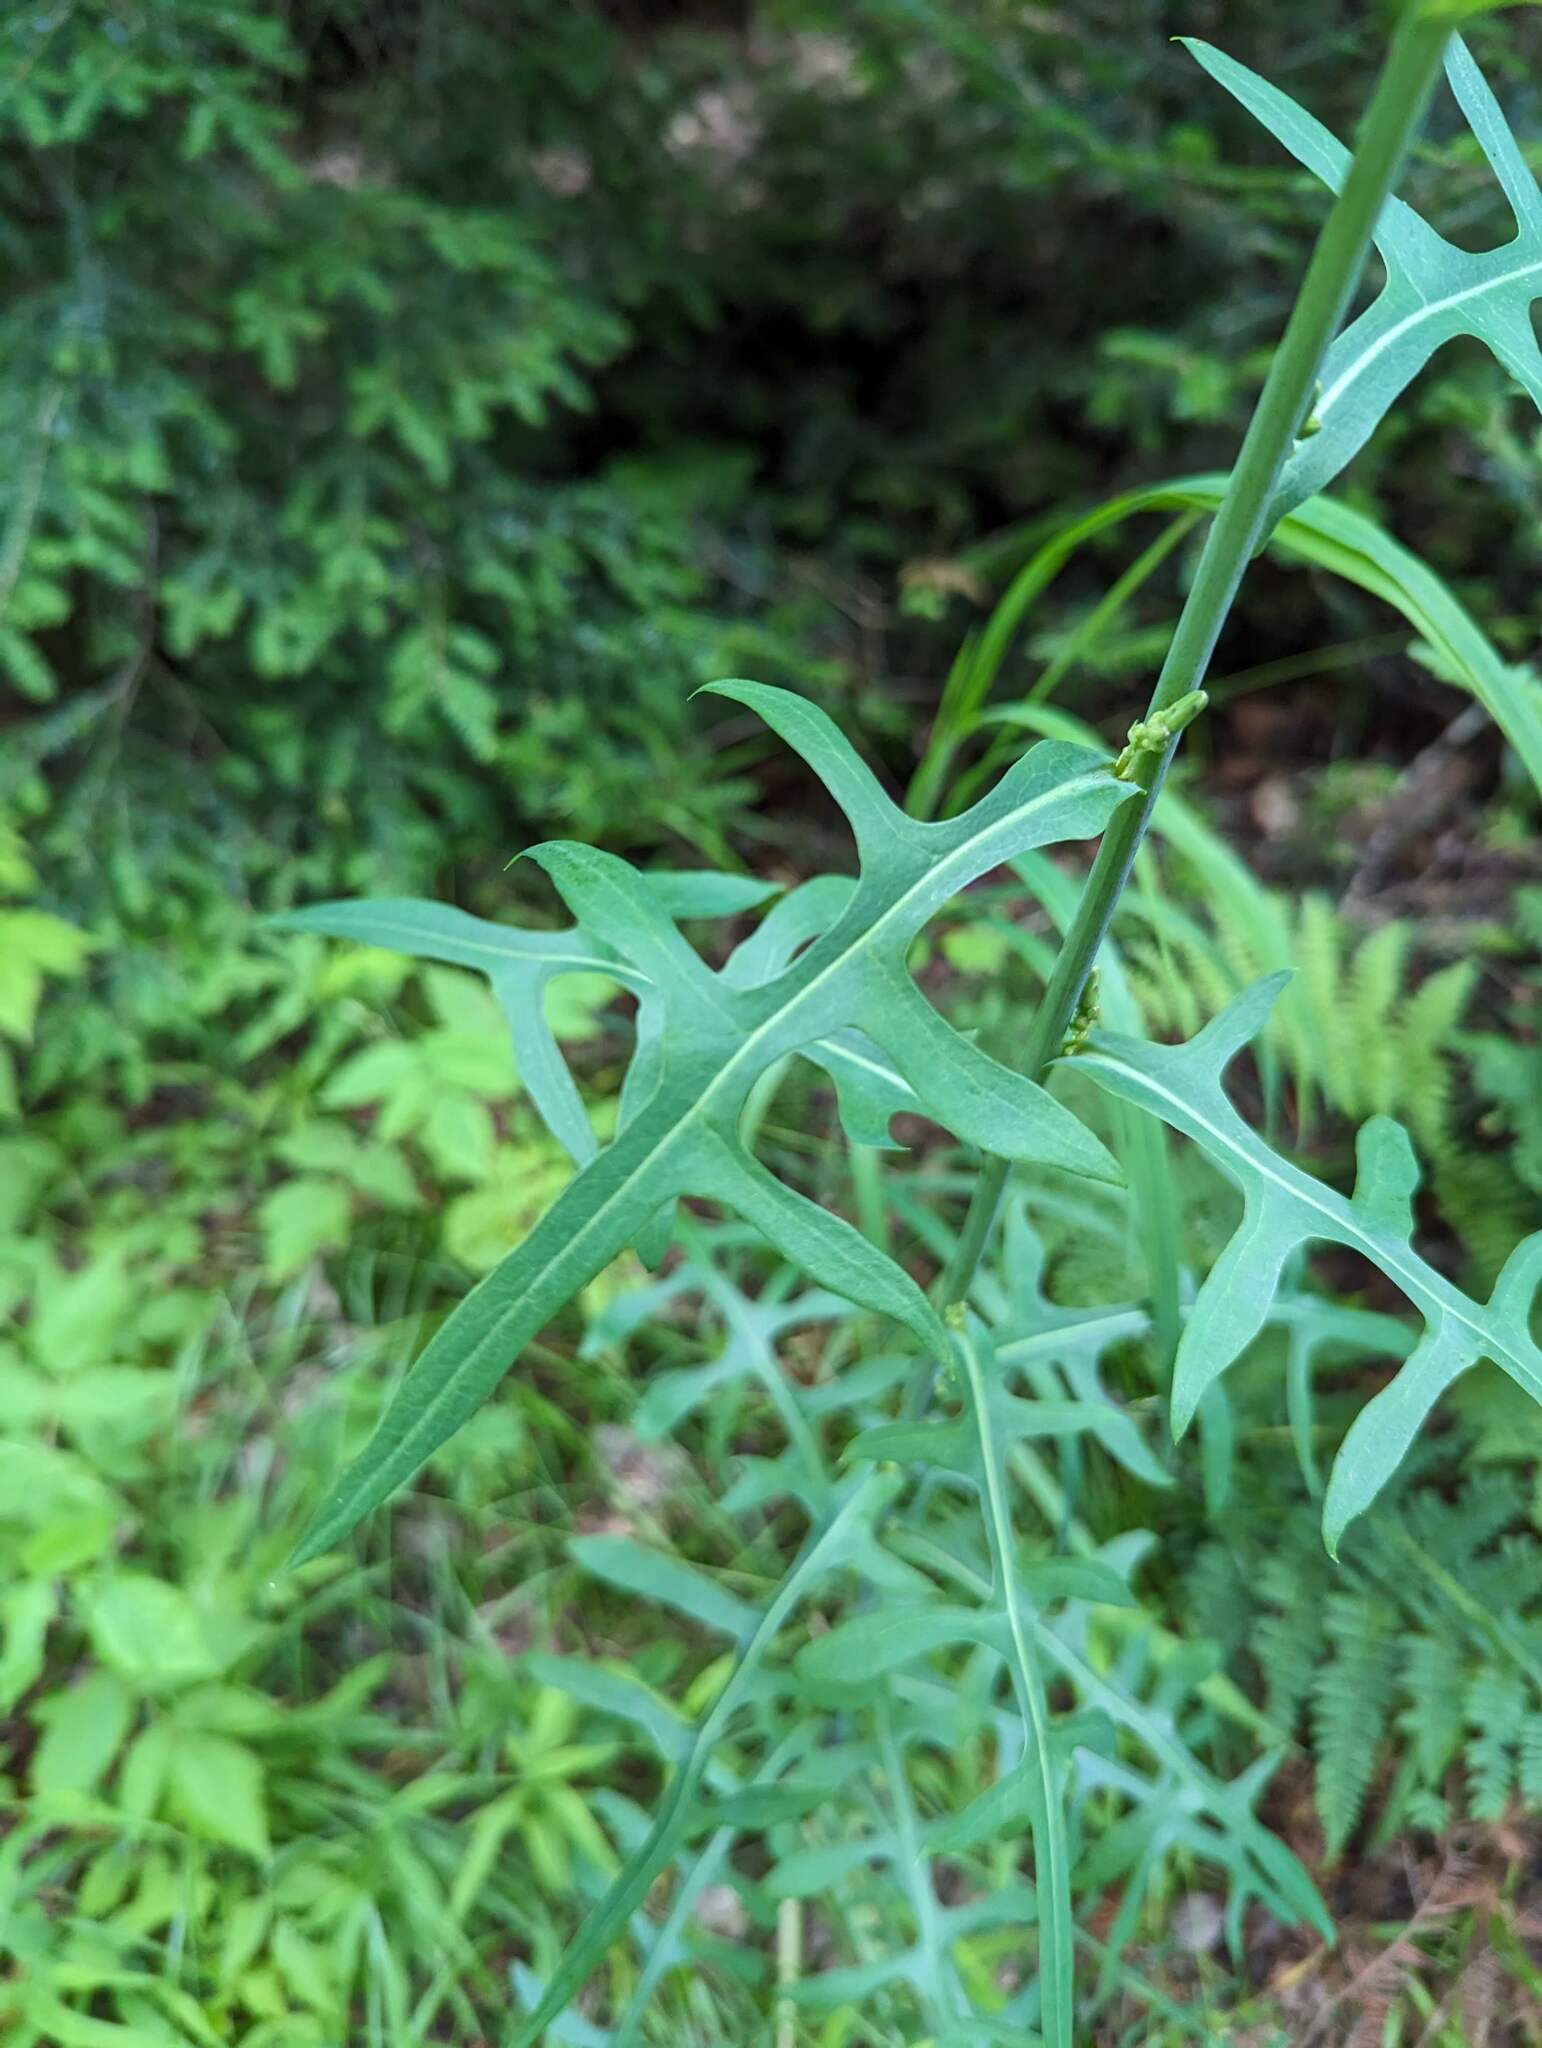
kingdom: Plantae
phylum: Tracheophyta
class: Magnoliopsida
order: Asterales
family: Asteraceae
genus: Lactuca
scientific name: Lactuca canadensis
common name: Canada lettuce
